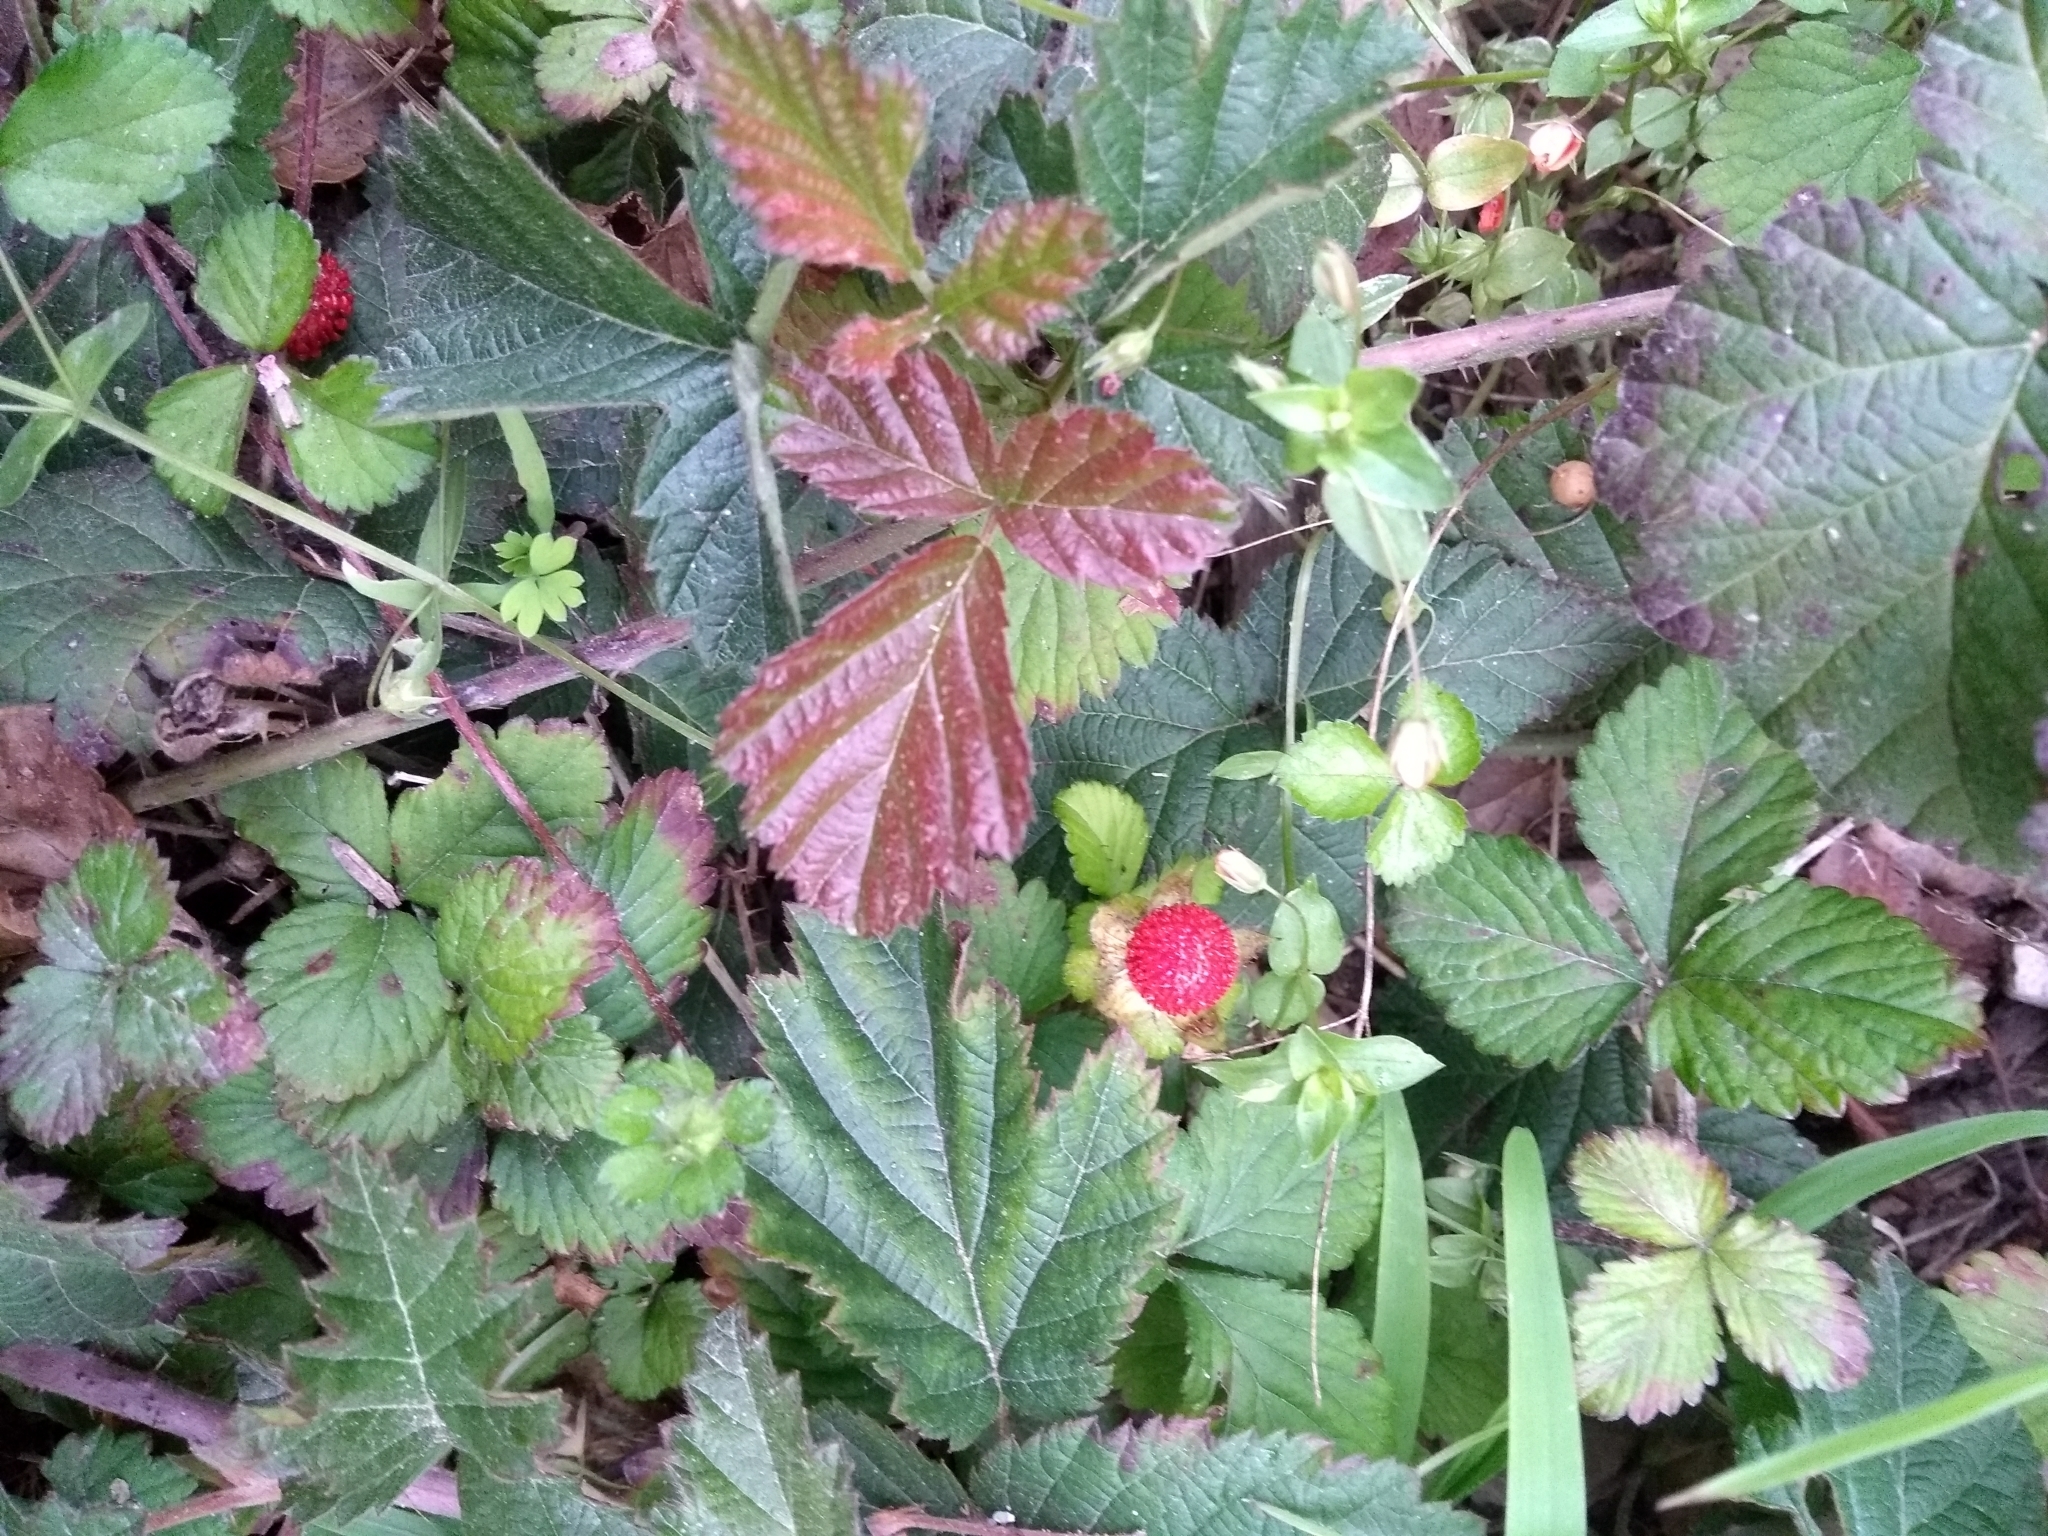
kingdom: Plantae
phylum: Tracheophyta
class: Magnoliopsida
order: Rosales
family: Rosaceae
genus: Potentilla
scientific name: Potentilla indica
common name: Yellow-flowered strawberry
